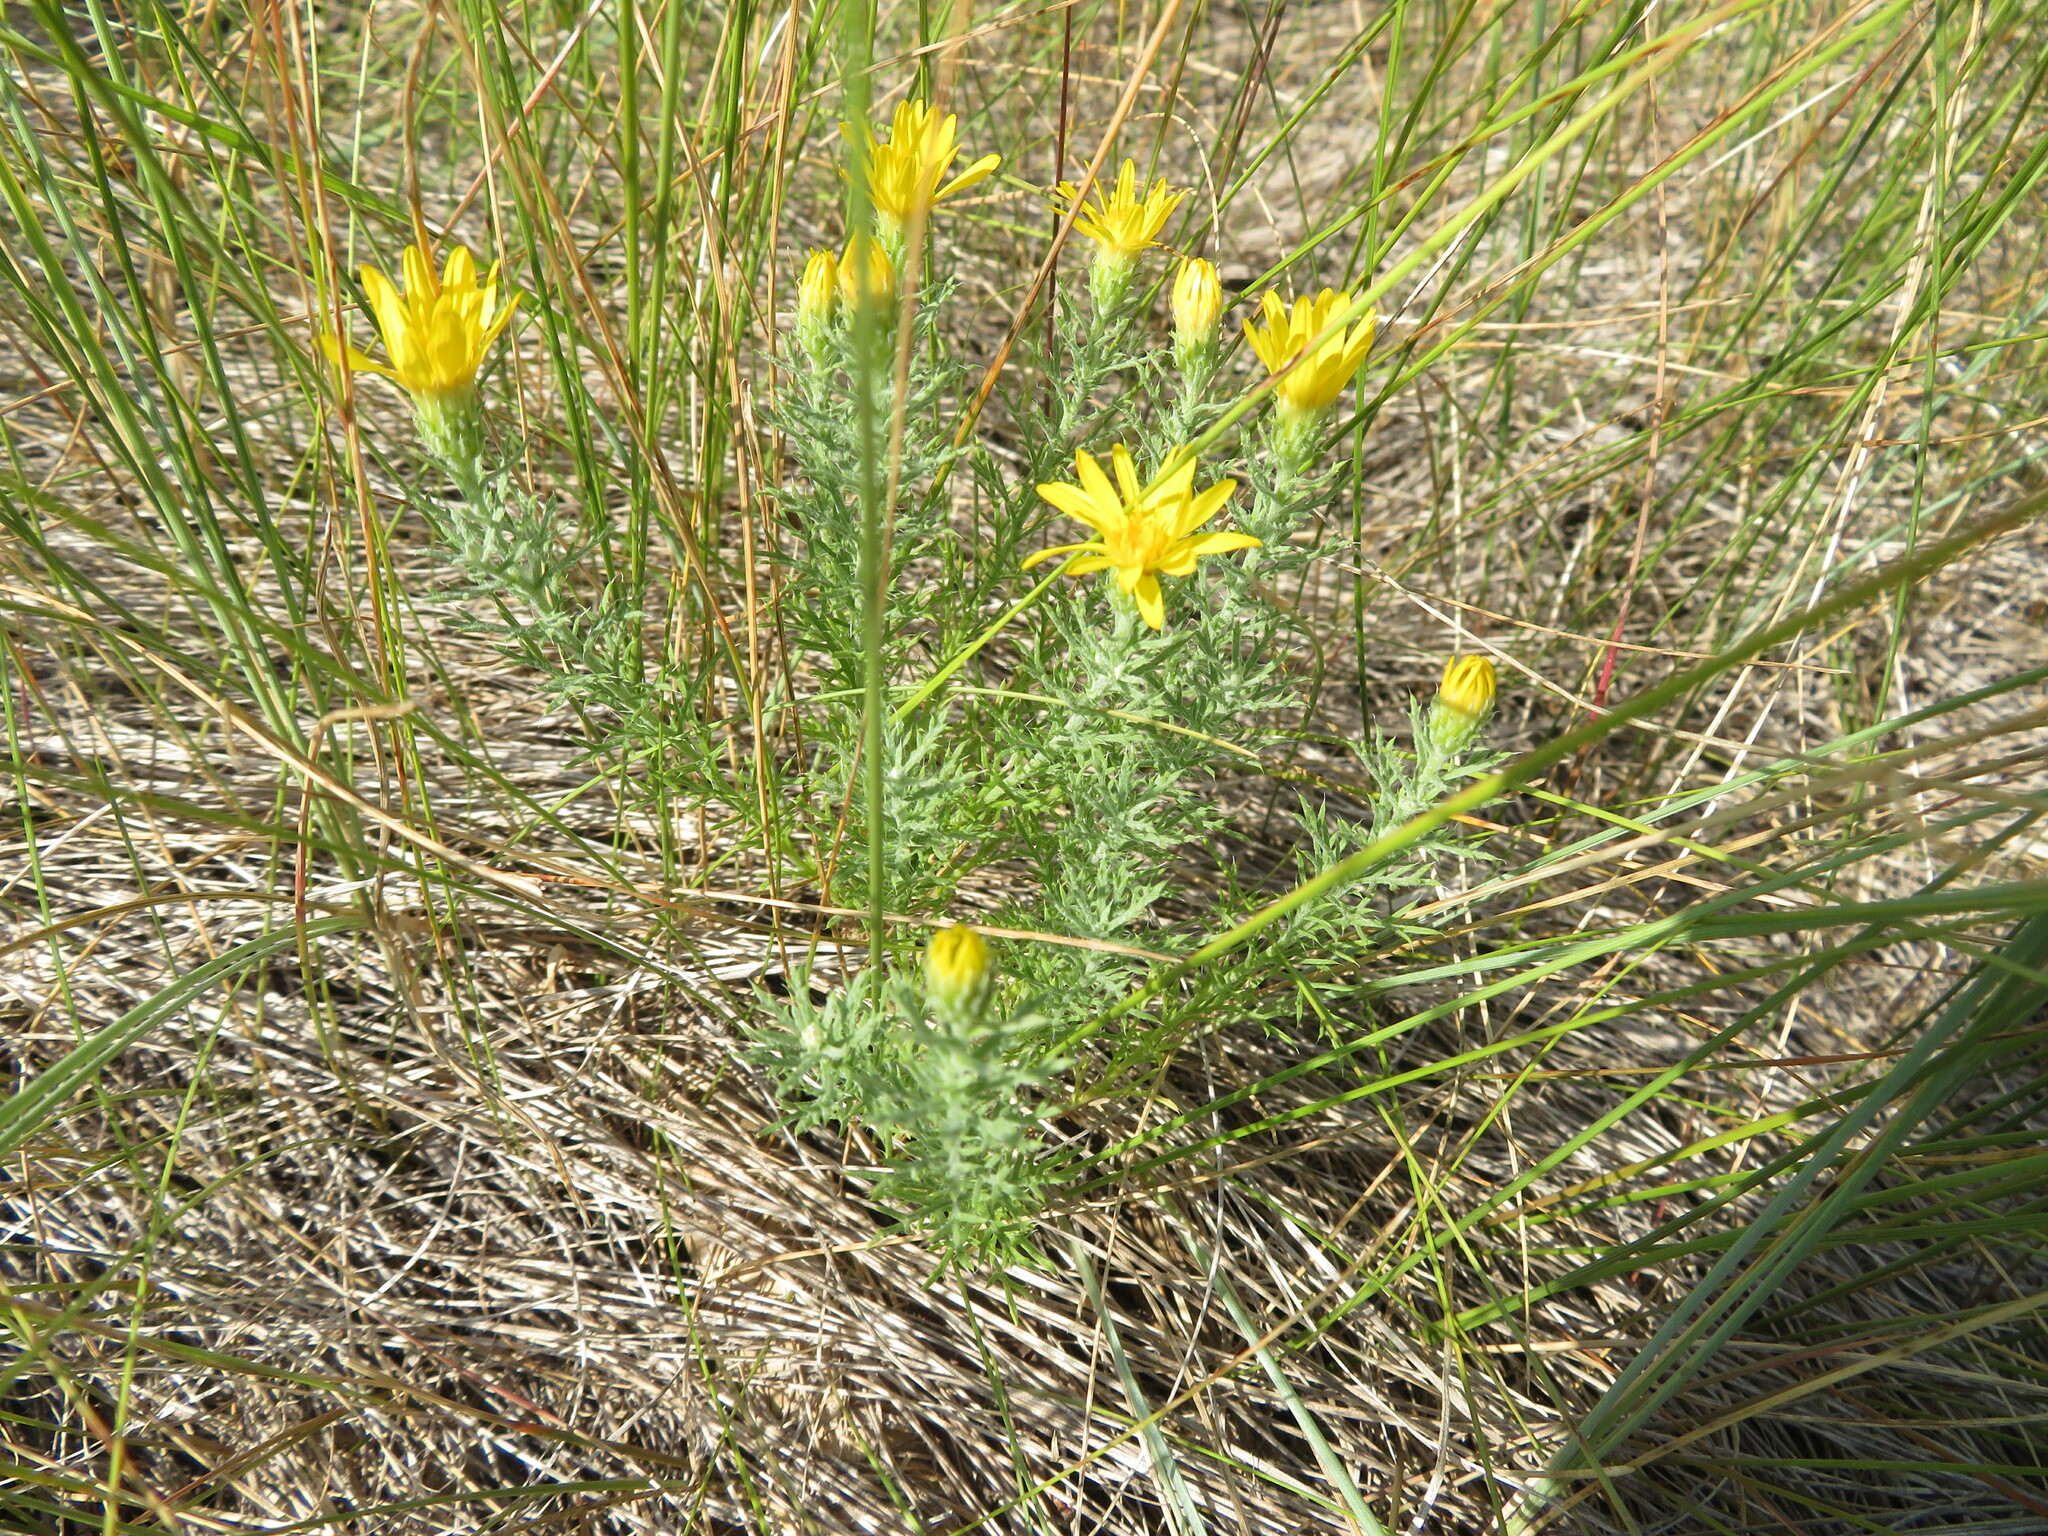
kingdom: Plantae
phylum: Tracheophyta
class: Magnoliopsida
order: Asterales
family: Asteraceae
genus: Xanthisma
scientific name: Xanthisma spinulosum
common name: Spiny goldenweed
